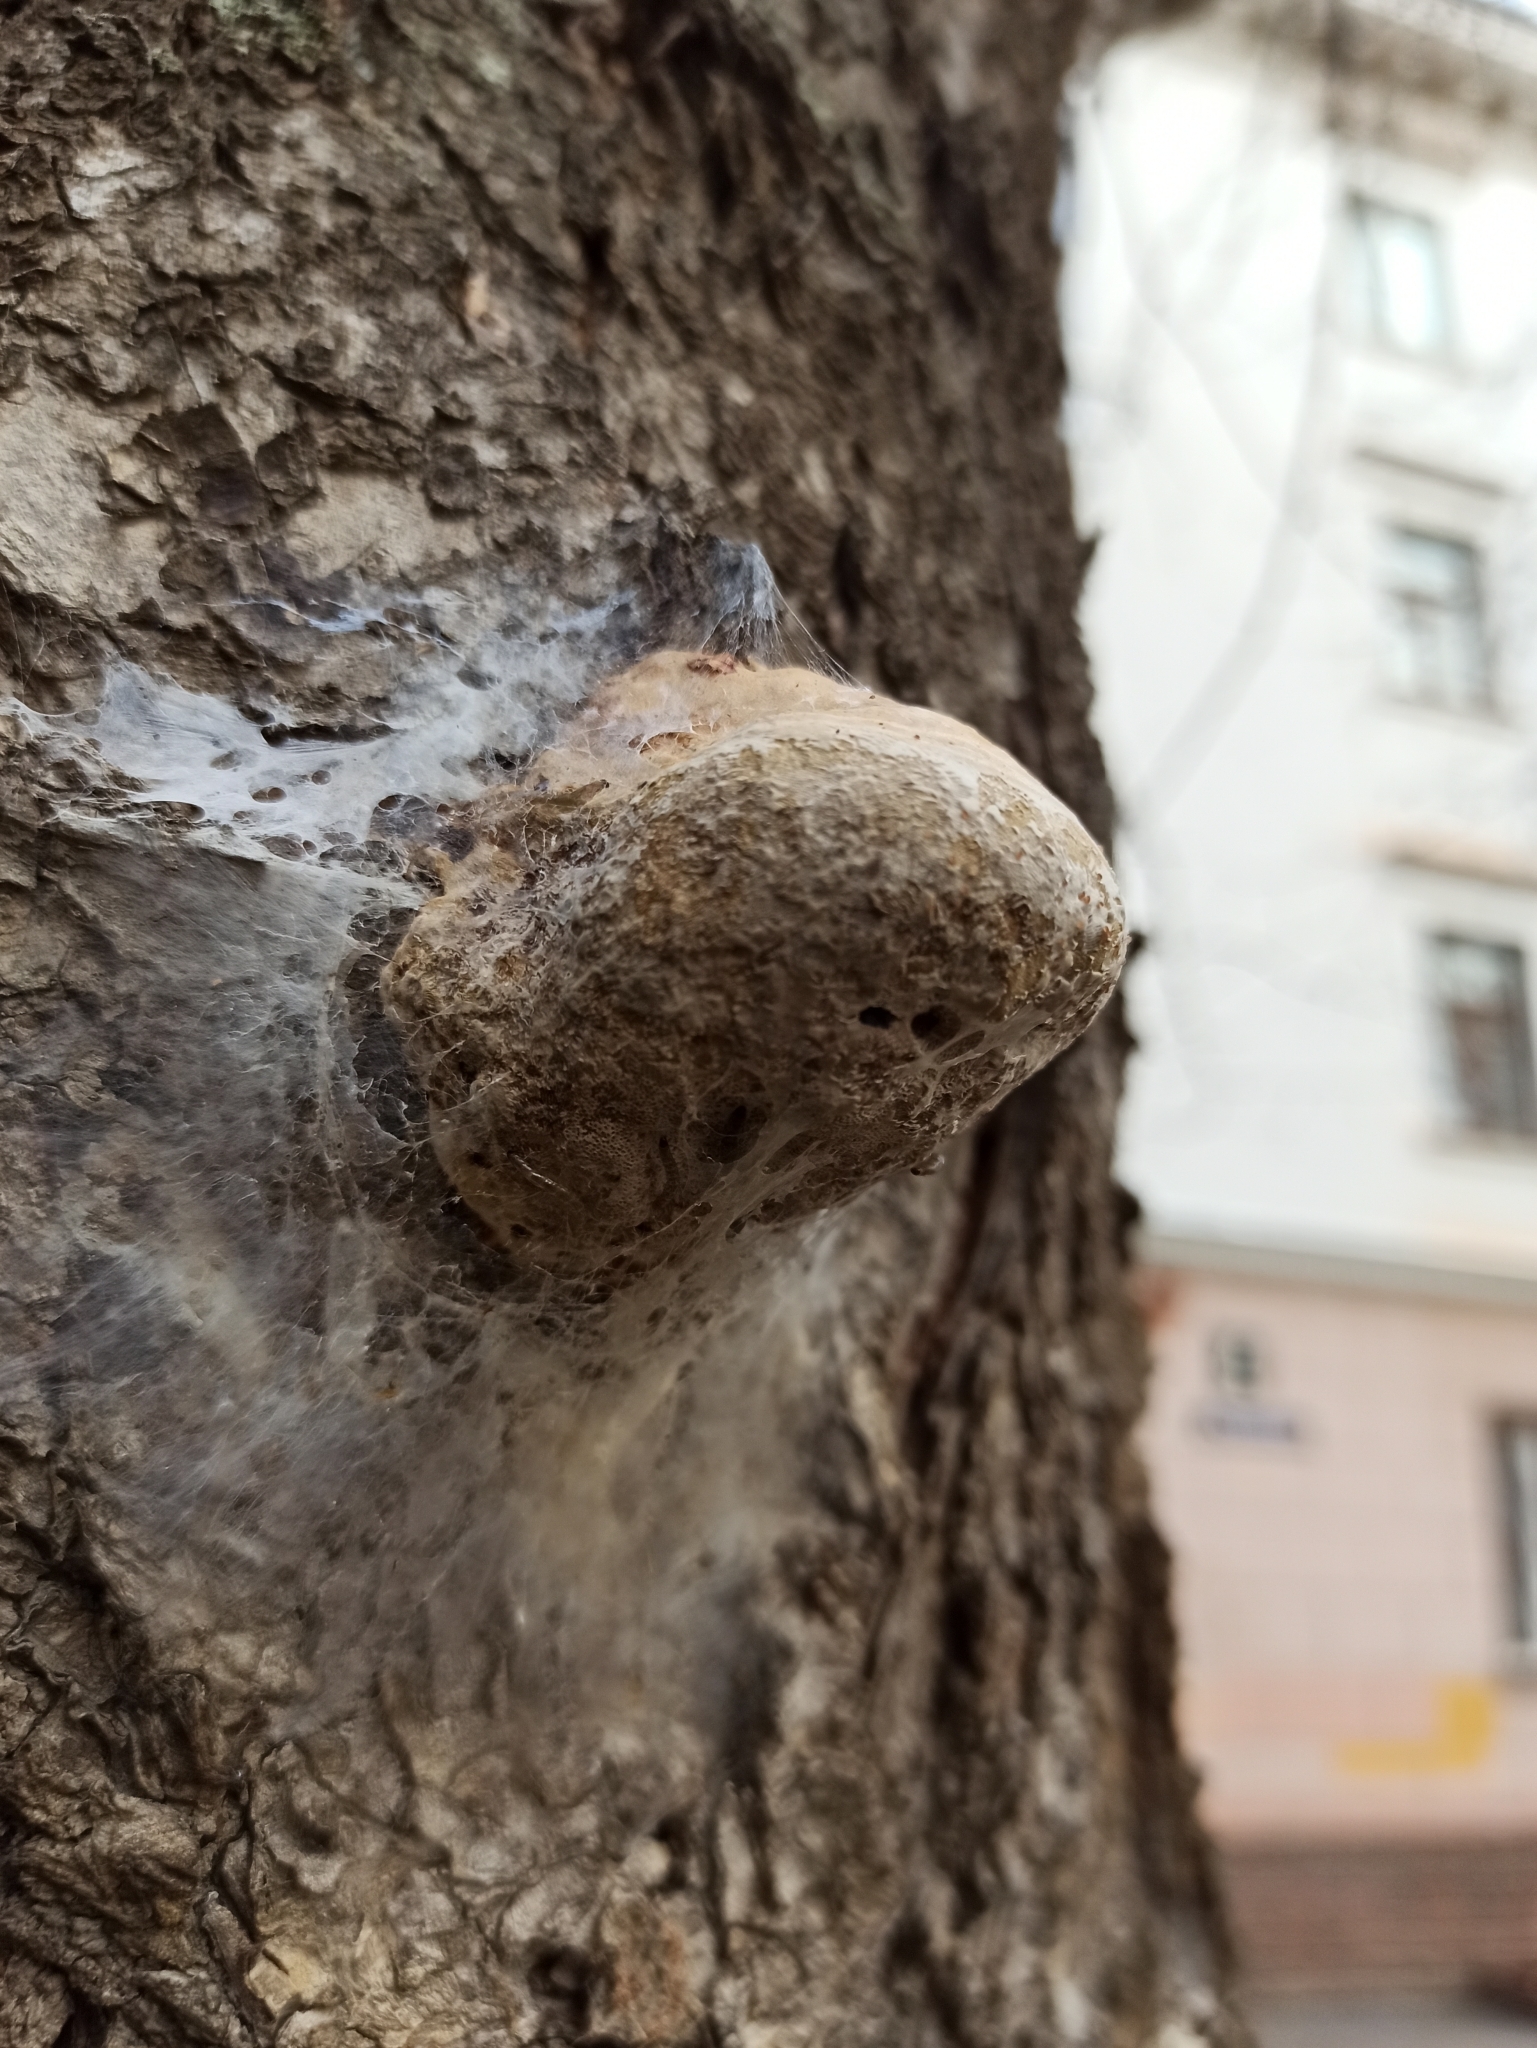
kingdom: Fungi
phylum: Basidiomycota
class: Agaricomycetes
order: Polyporales
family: Polyporaceae
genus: Fomes
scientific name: Fomes fomentarius
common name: Hoof fungus
